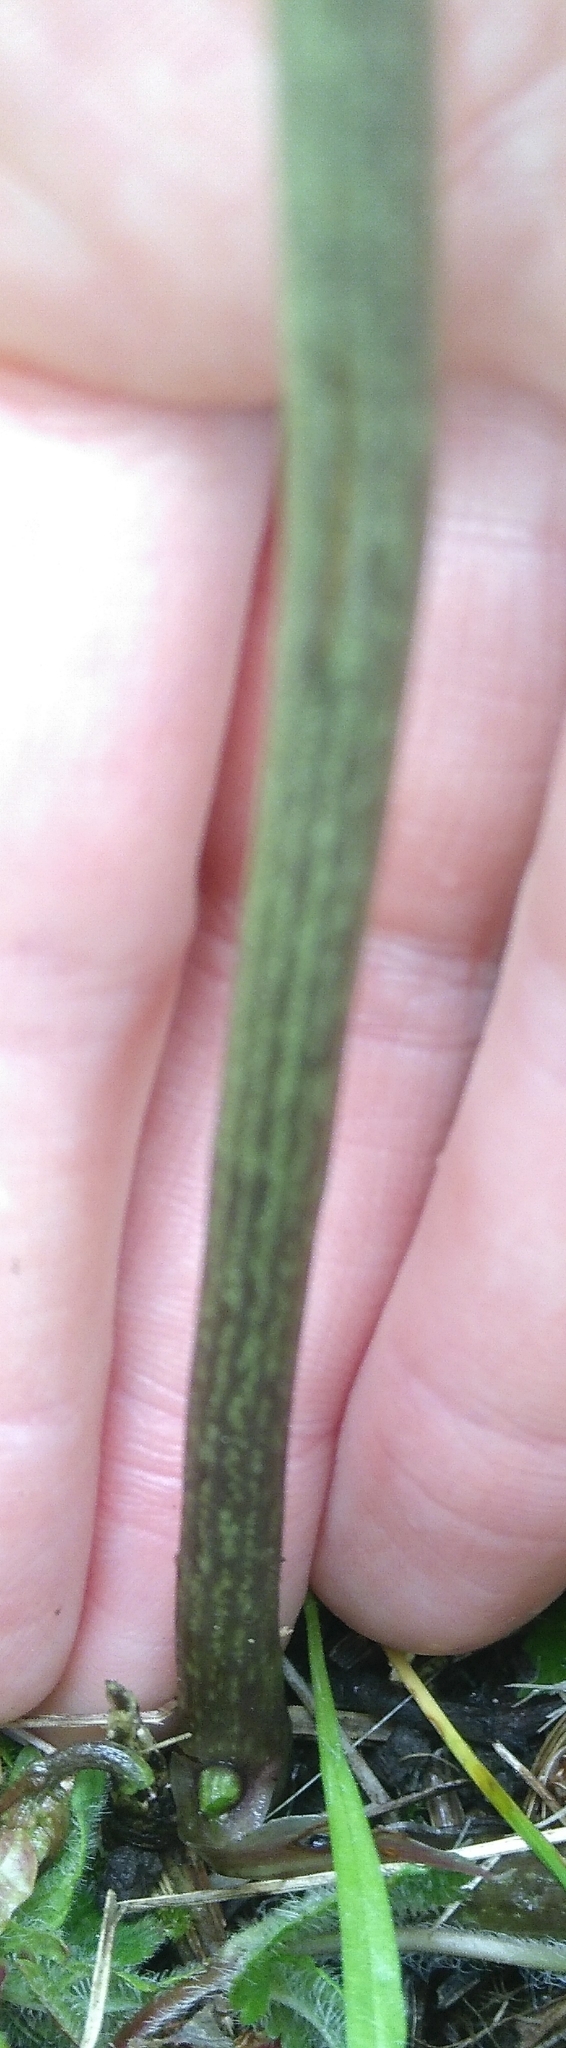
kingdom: Plantae
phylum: Tracheophyta
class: Liliopsida
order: Dioscoreales
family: Dioscoreaceae
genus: Dioscorea
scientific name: Dioscorea communis
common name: Black-bindweed
